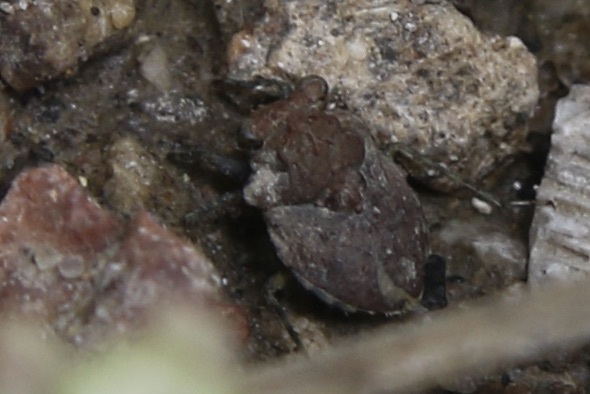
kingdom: Animalia
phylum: Arthropoda
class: Insecta
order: Hemiptera
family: Gelastocoridae
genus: Gelastocoris
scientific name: Gelastocoris oculatus
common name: Toad bug
